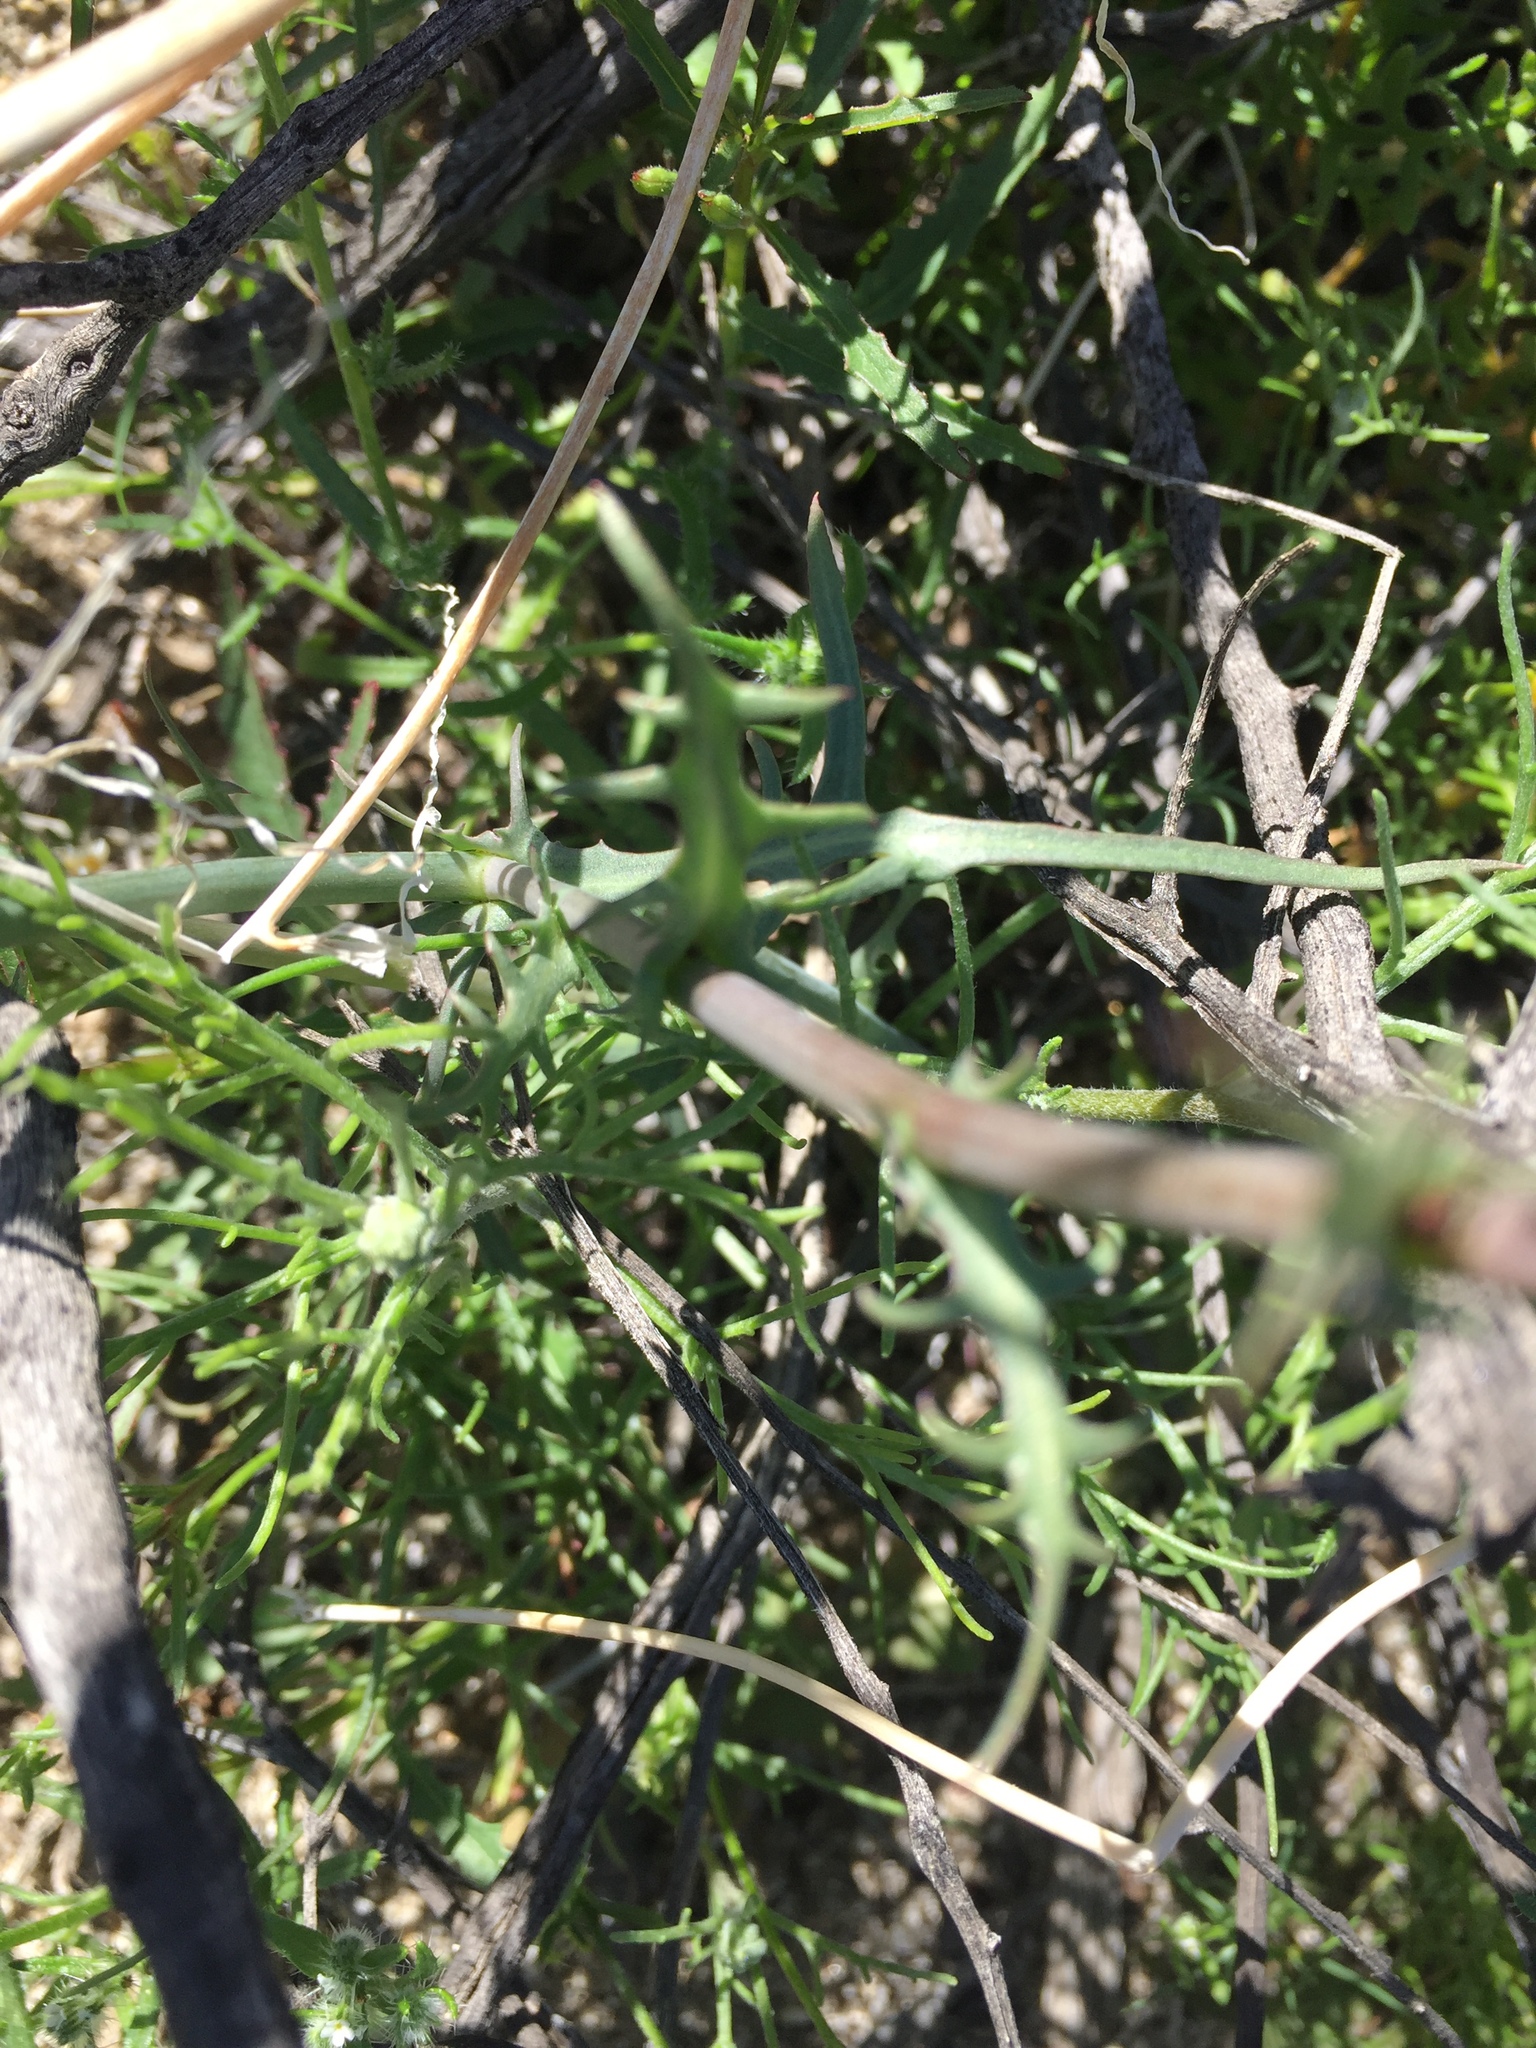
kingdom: Plantae
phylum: Tracheophyta
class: Magnoliopsida
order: Asterales
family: Asteraceae
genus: Rafinesquia
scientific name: Rafinesquia neomexicana
